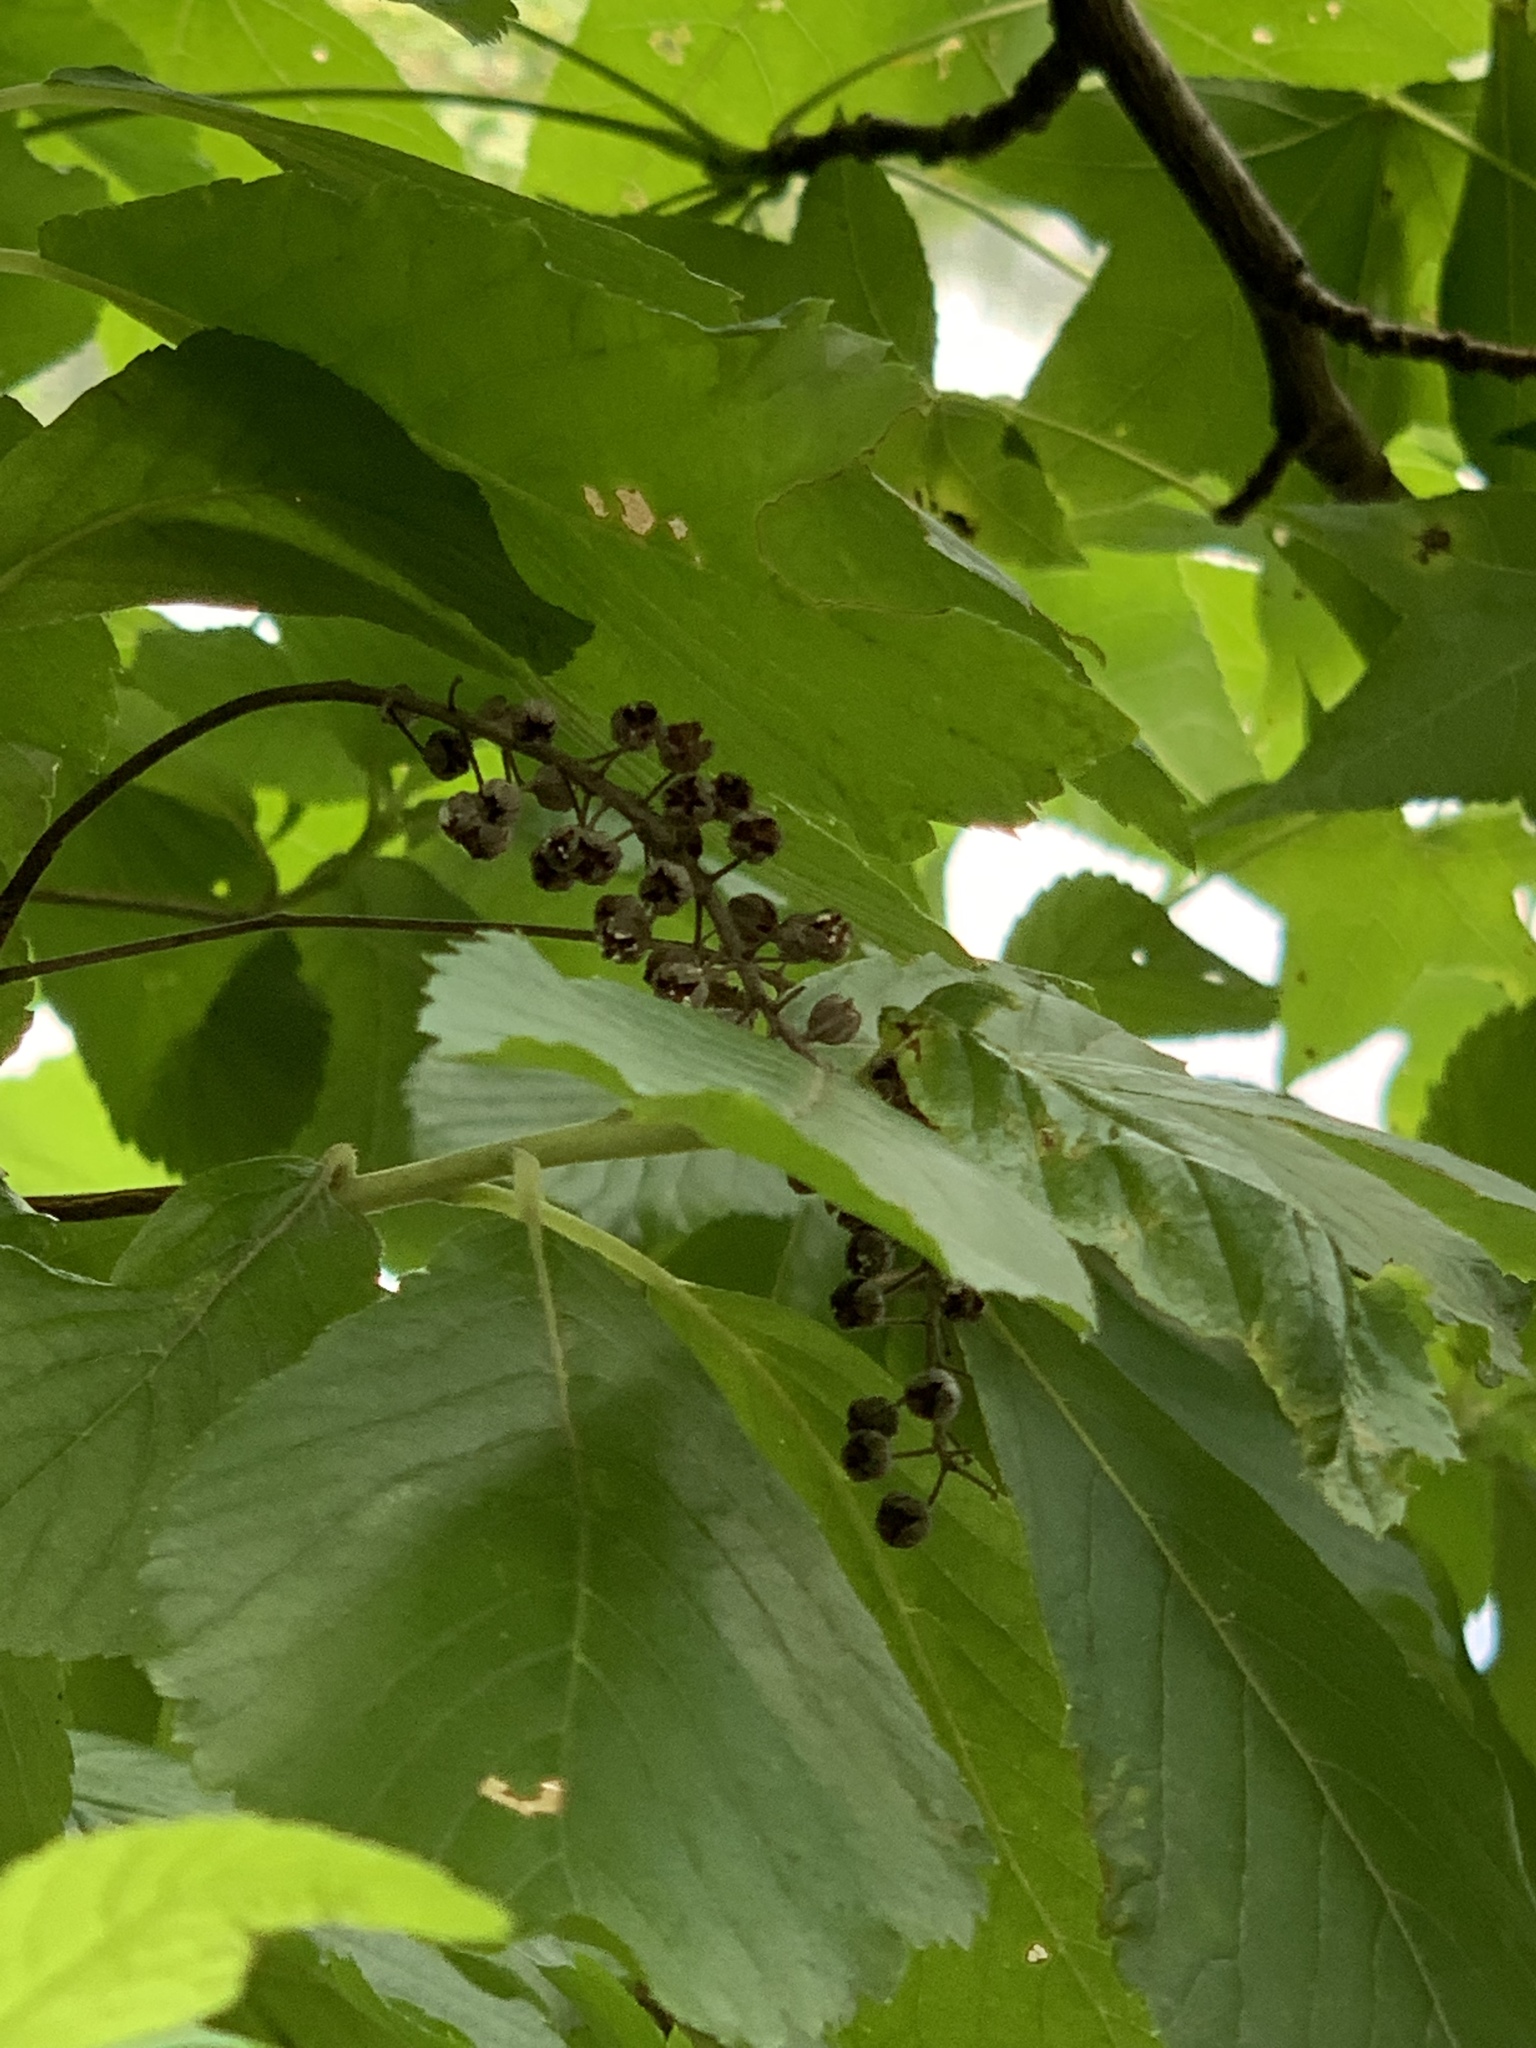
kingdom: Plantae
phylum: Tracheophyta
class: Magnoliopsida
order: Ericales
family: Clethraceae
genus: Clethra
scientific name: Clethra alnifolia
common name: Sweet pepperbush
